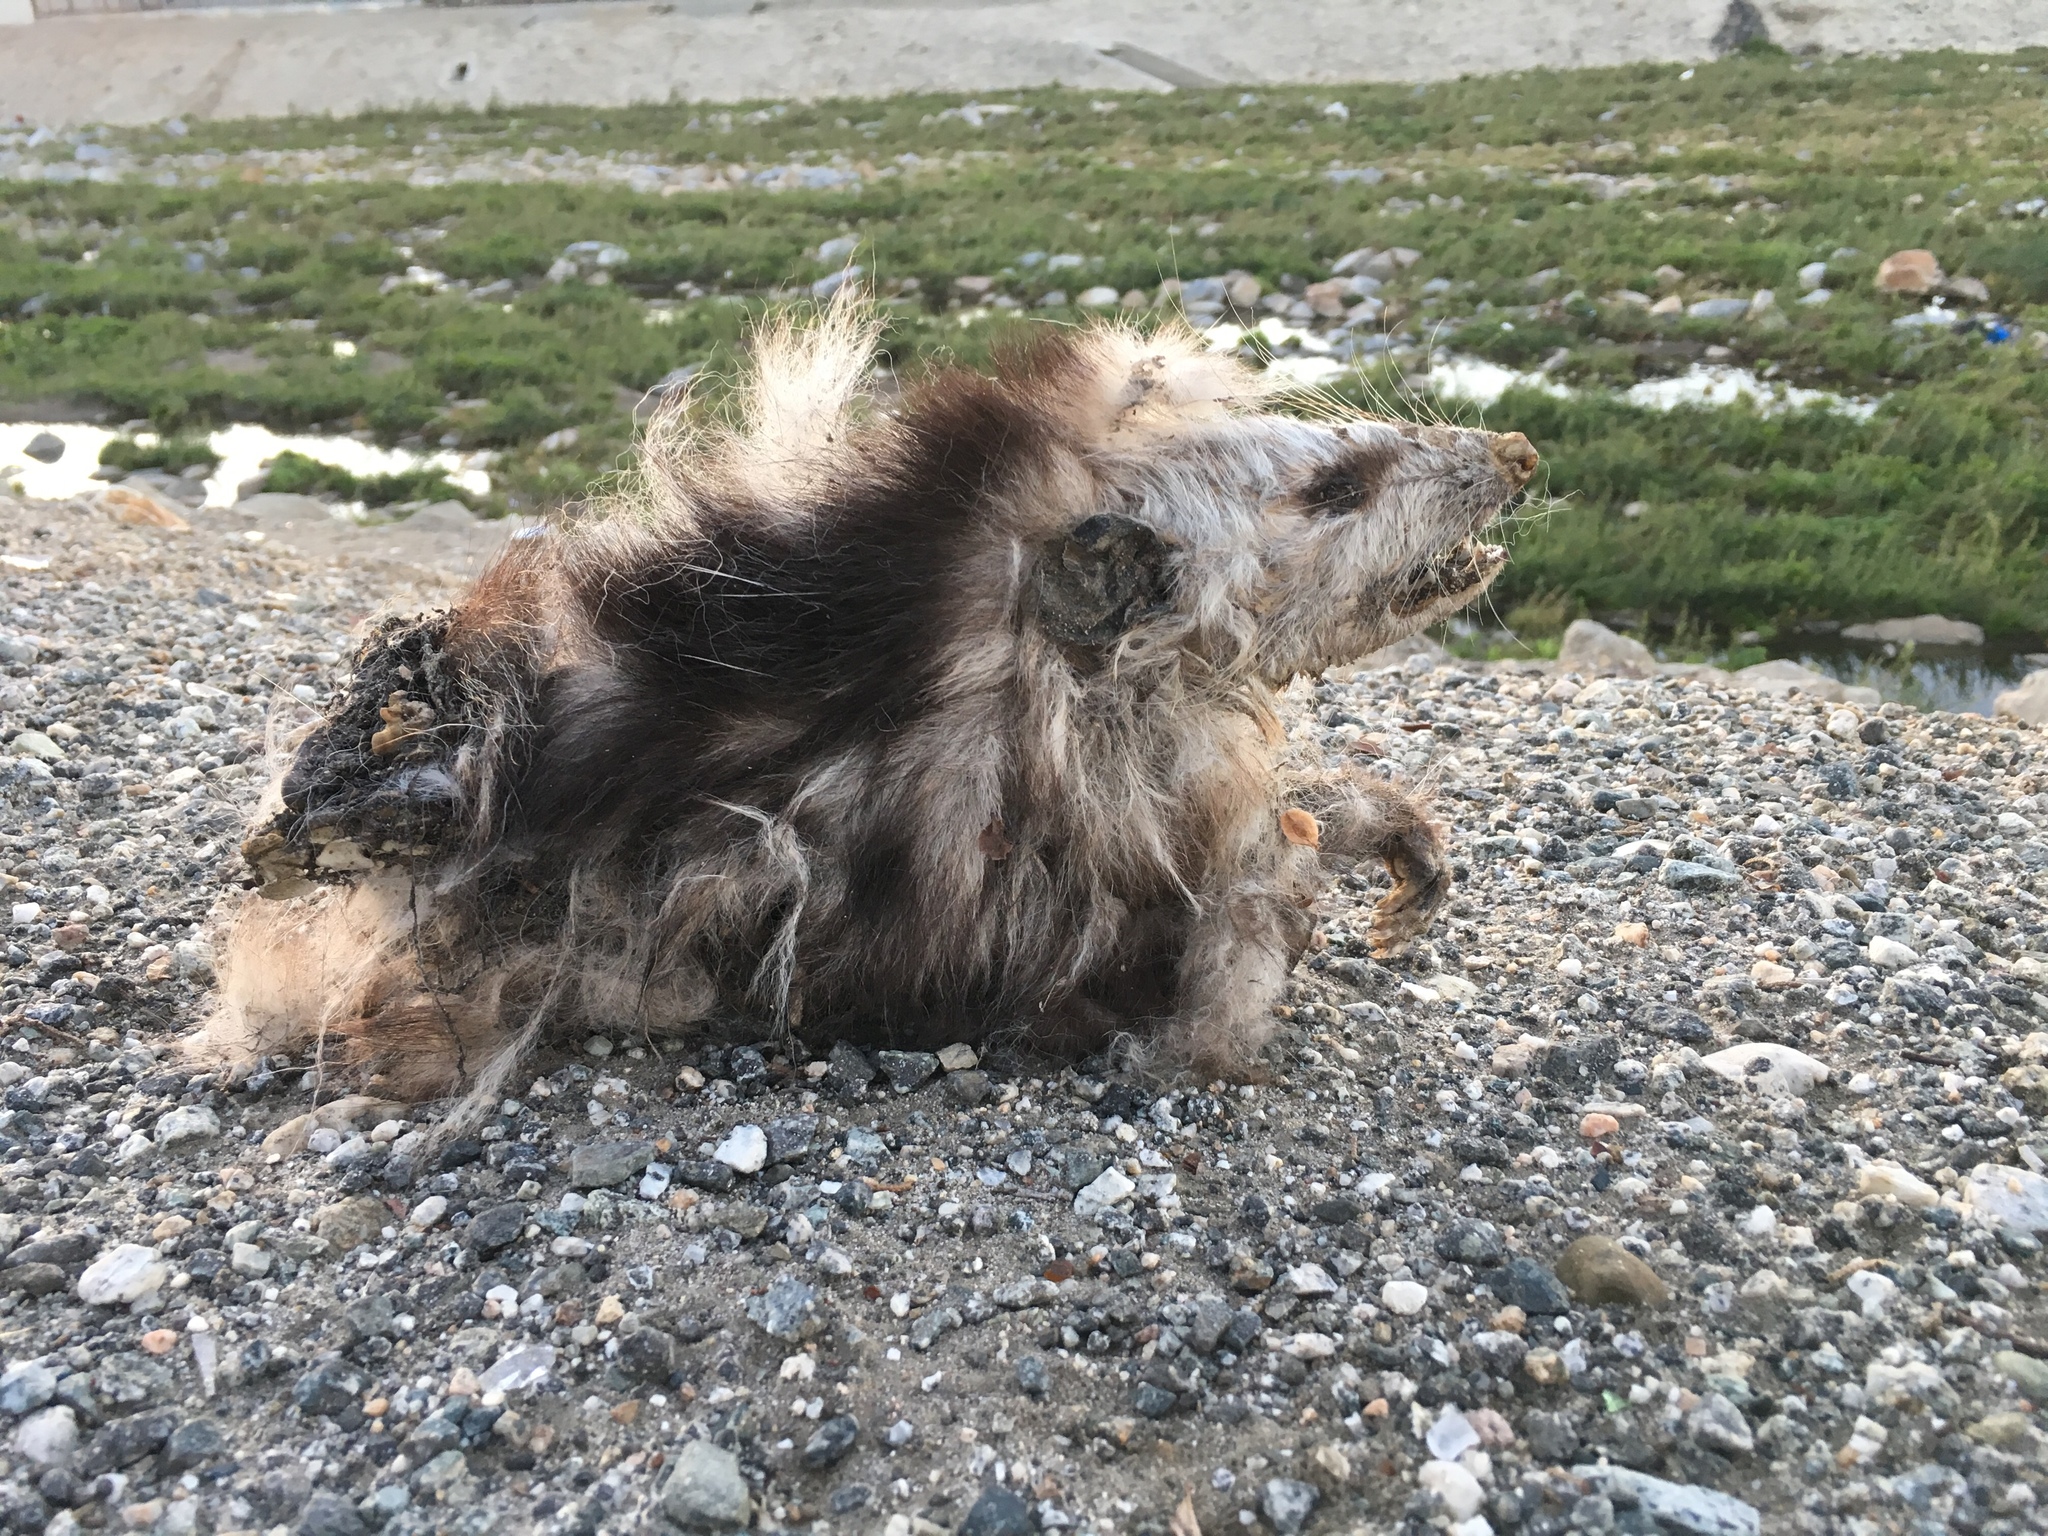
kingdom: Animalia
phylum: Chordata
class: Mammalia
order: Didelphimorphia
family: Didelphidae
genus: Didelphis
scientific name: Didelphis virginiana
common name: Virginia opossum
